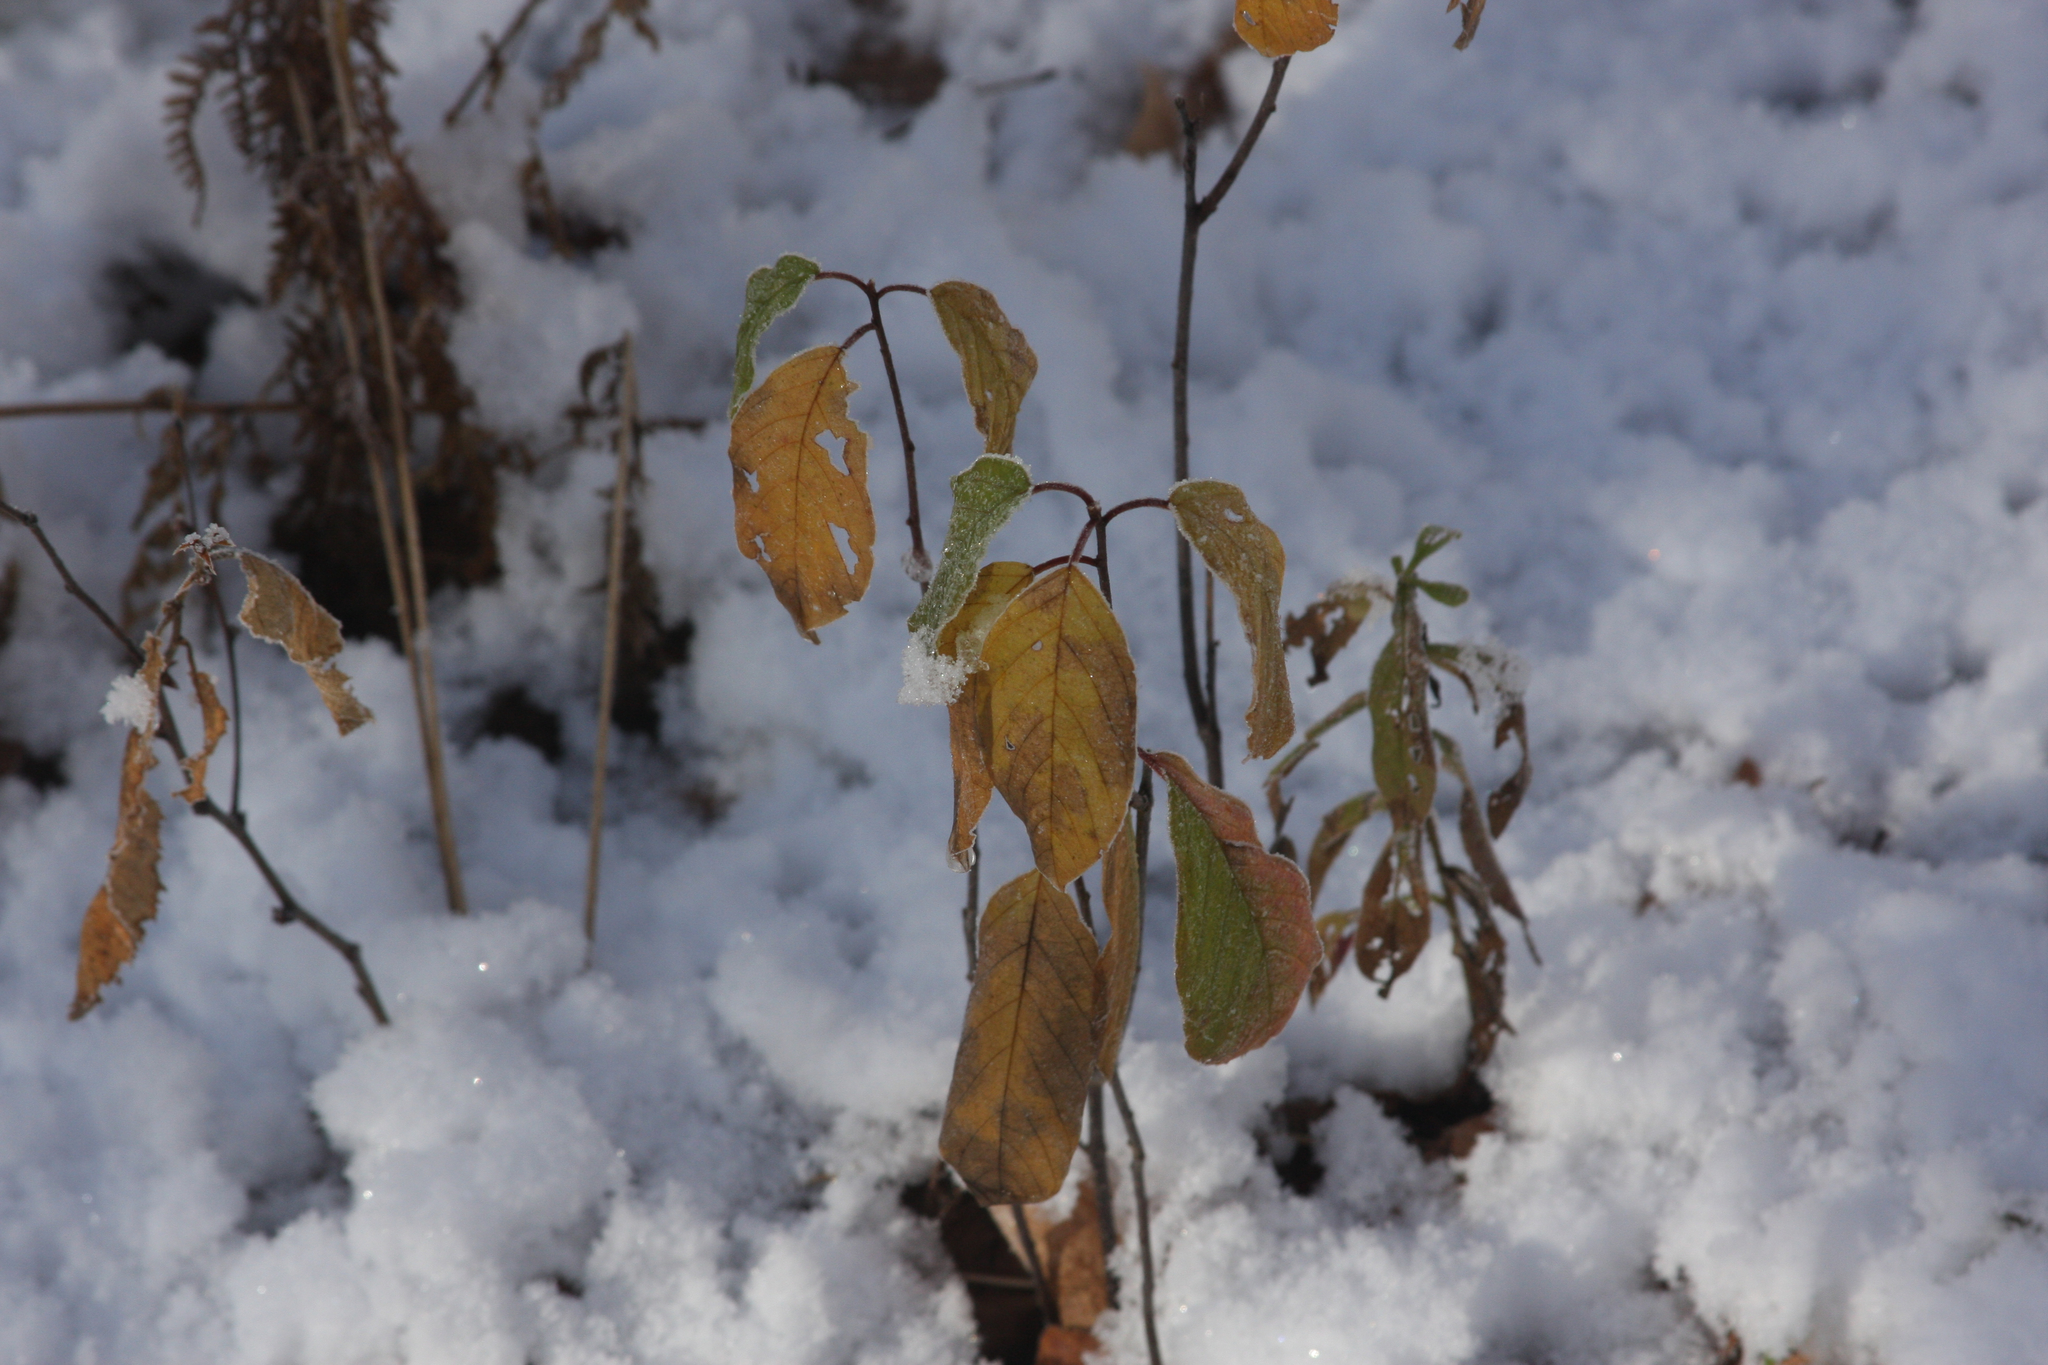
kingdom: Plantae
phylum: Tracheophyta
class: Magnoliopsida
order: Rosales
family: Rhamnaceae
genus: Frangula
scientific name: Frangula alnus
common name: Alder buckthorn
